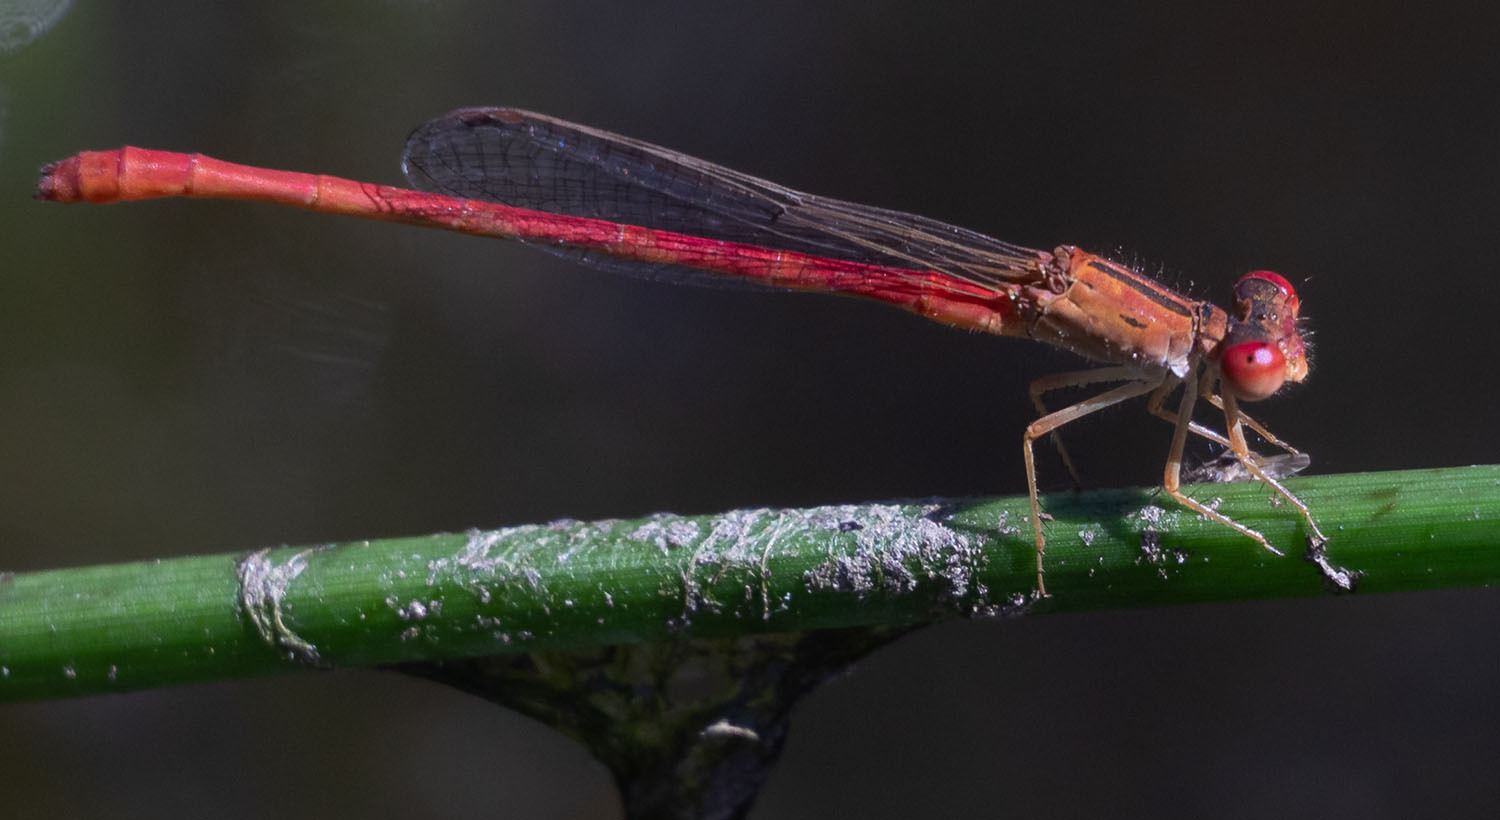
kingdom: Animalia
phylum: Arthropoda
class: Insecta
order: Odonata
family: Coenagrionidae
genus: Telebasis
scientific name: Telebasis salva
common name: Desert firetail
